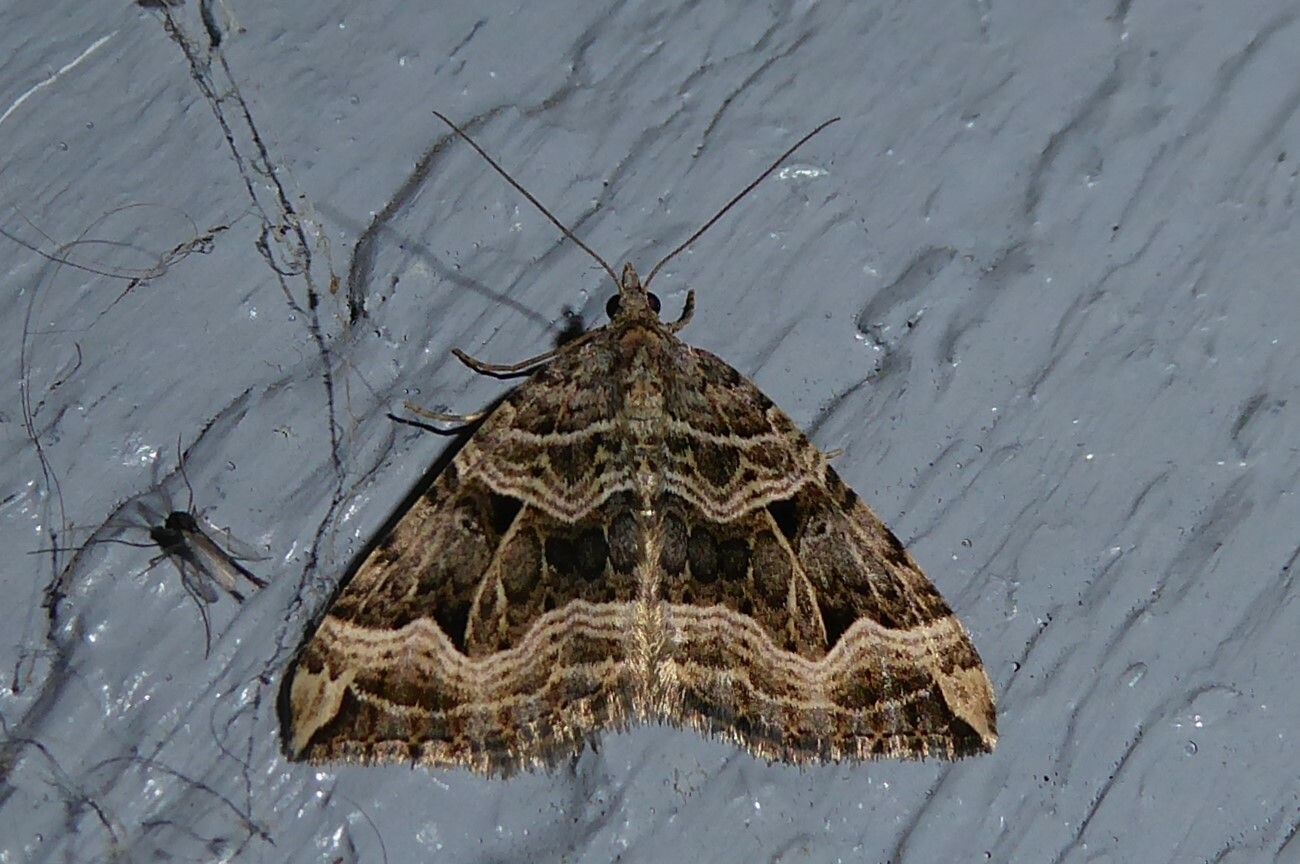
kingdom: Animalia
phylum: Arthropoda
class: Insecta
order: Lepidoptera
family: Geometridae
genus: Xanthorhoe
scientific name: Xanthorhoe semifissata
